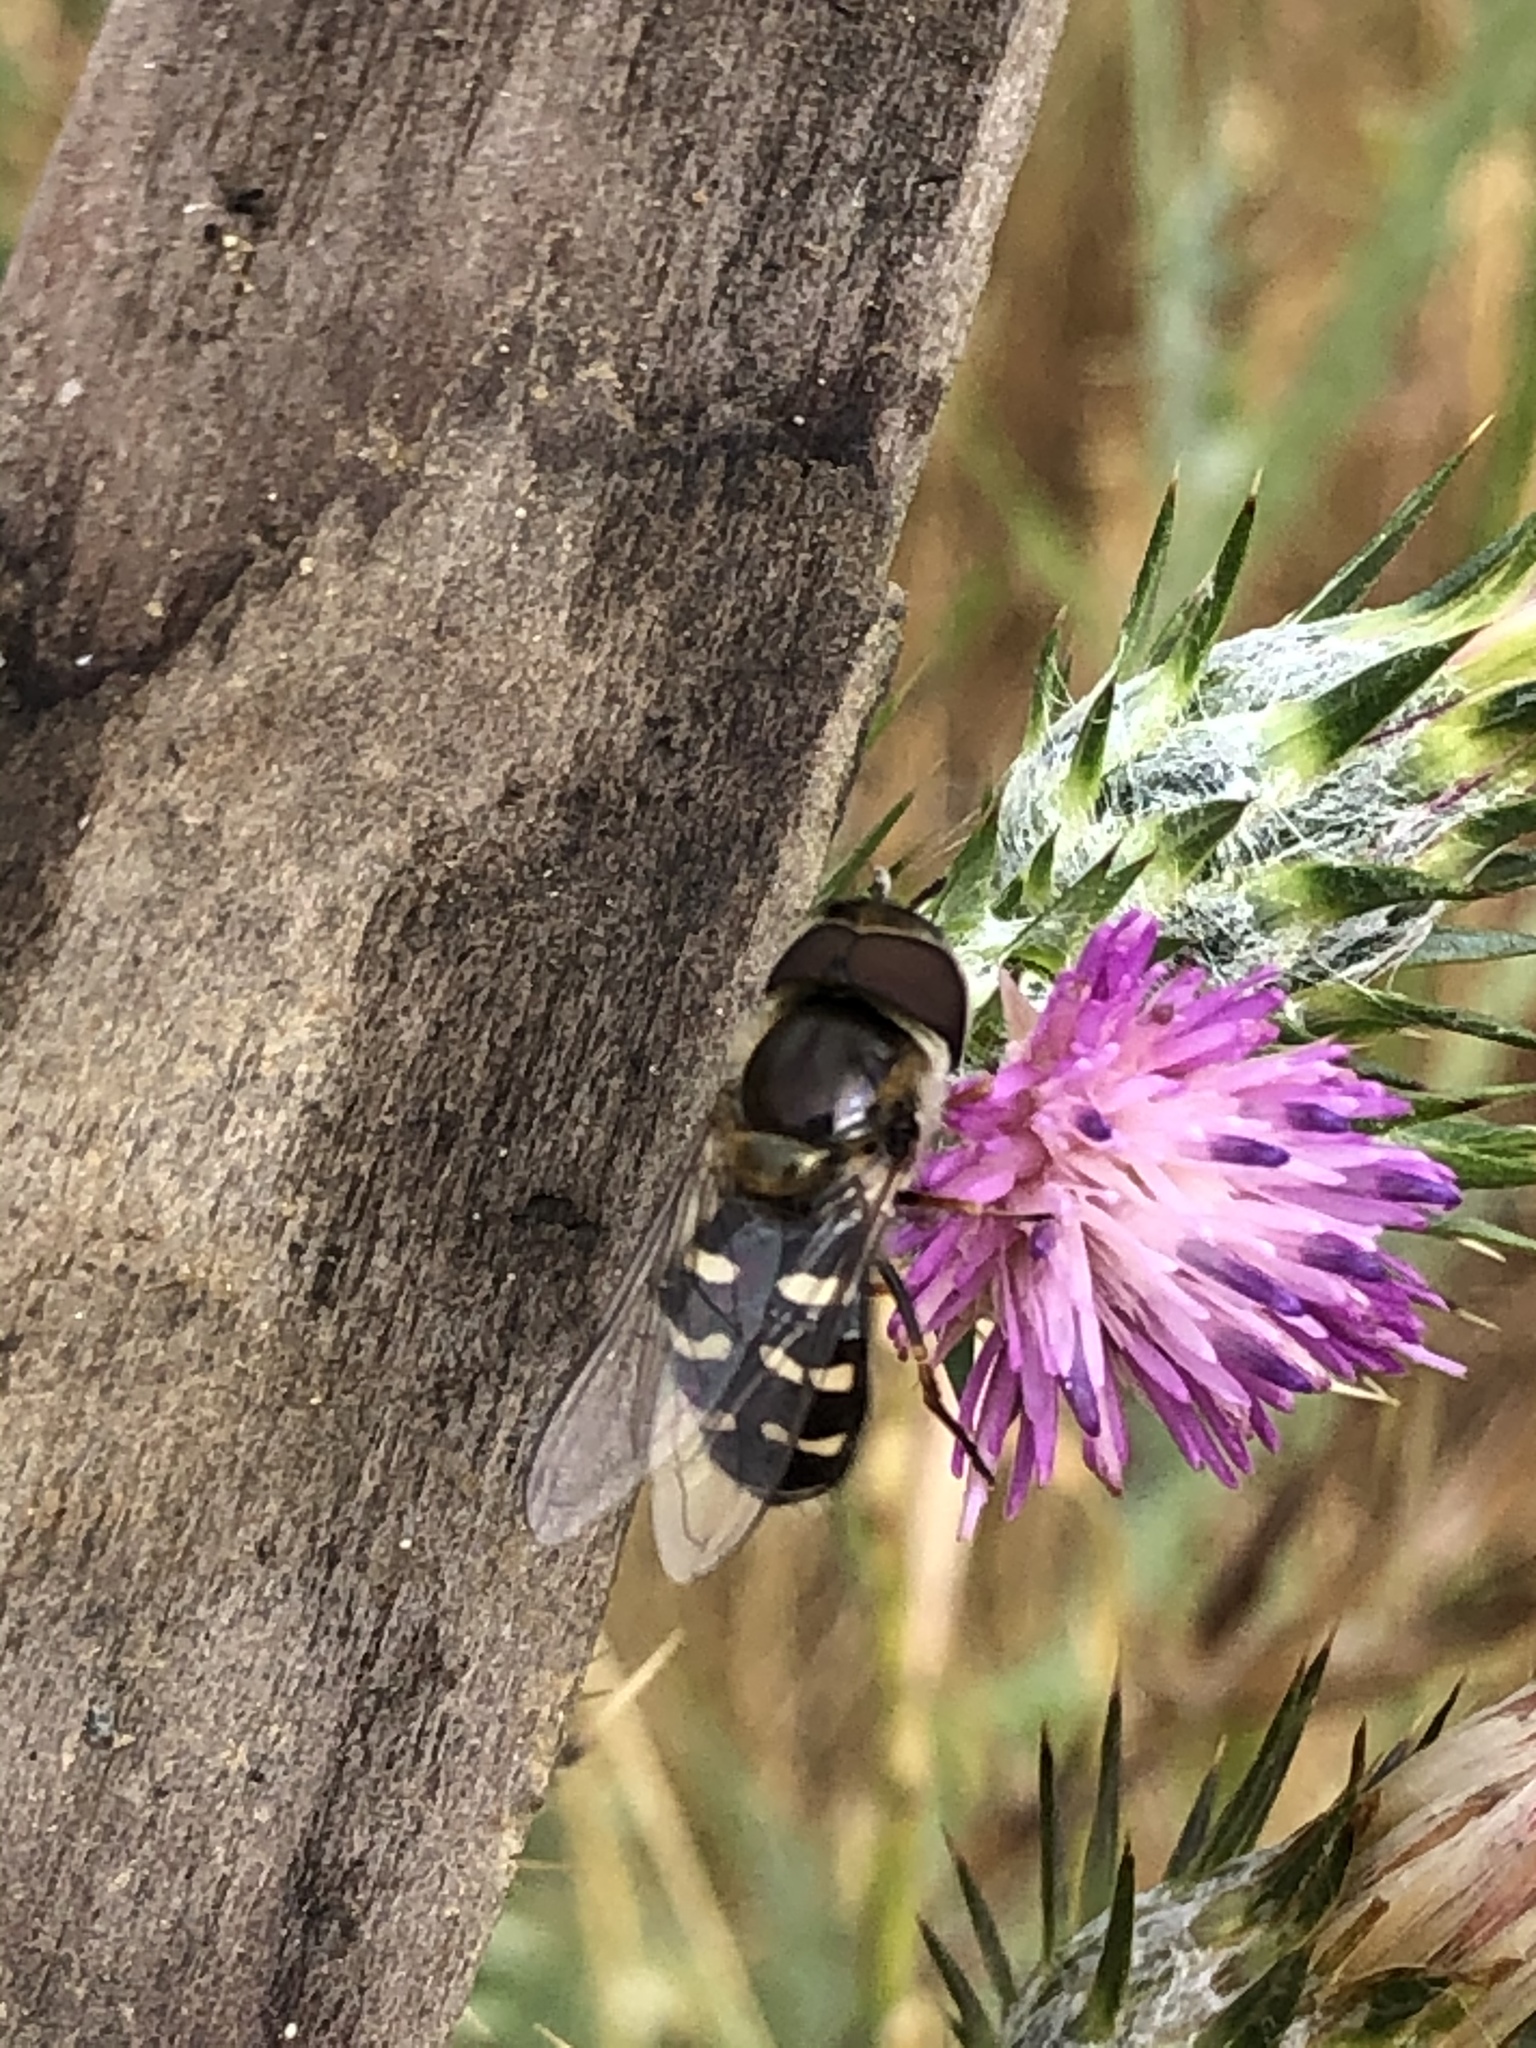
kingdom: Animalia
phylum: Arthropoda
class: Insecta
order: Diptera
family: Syrphidae
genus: Scaeva
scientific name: Scaeva affinis
